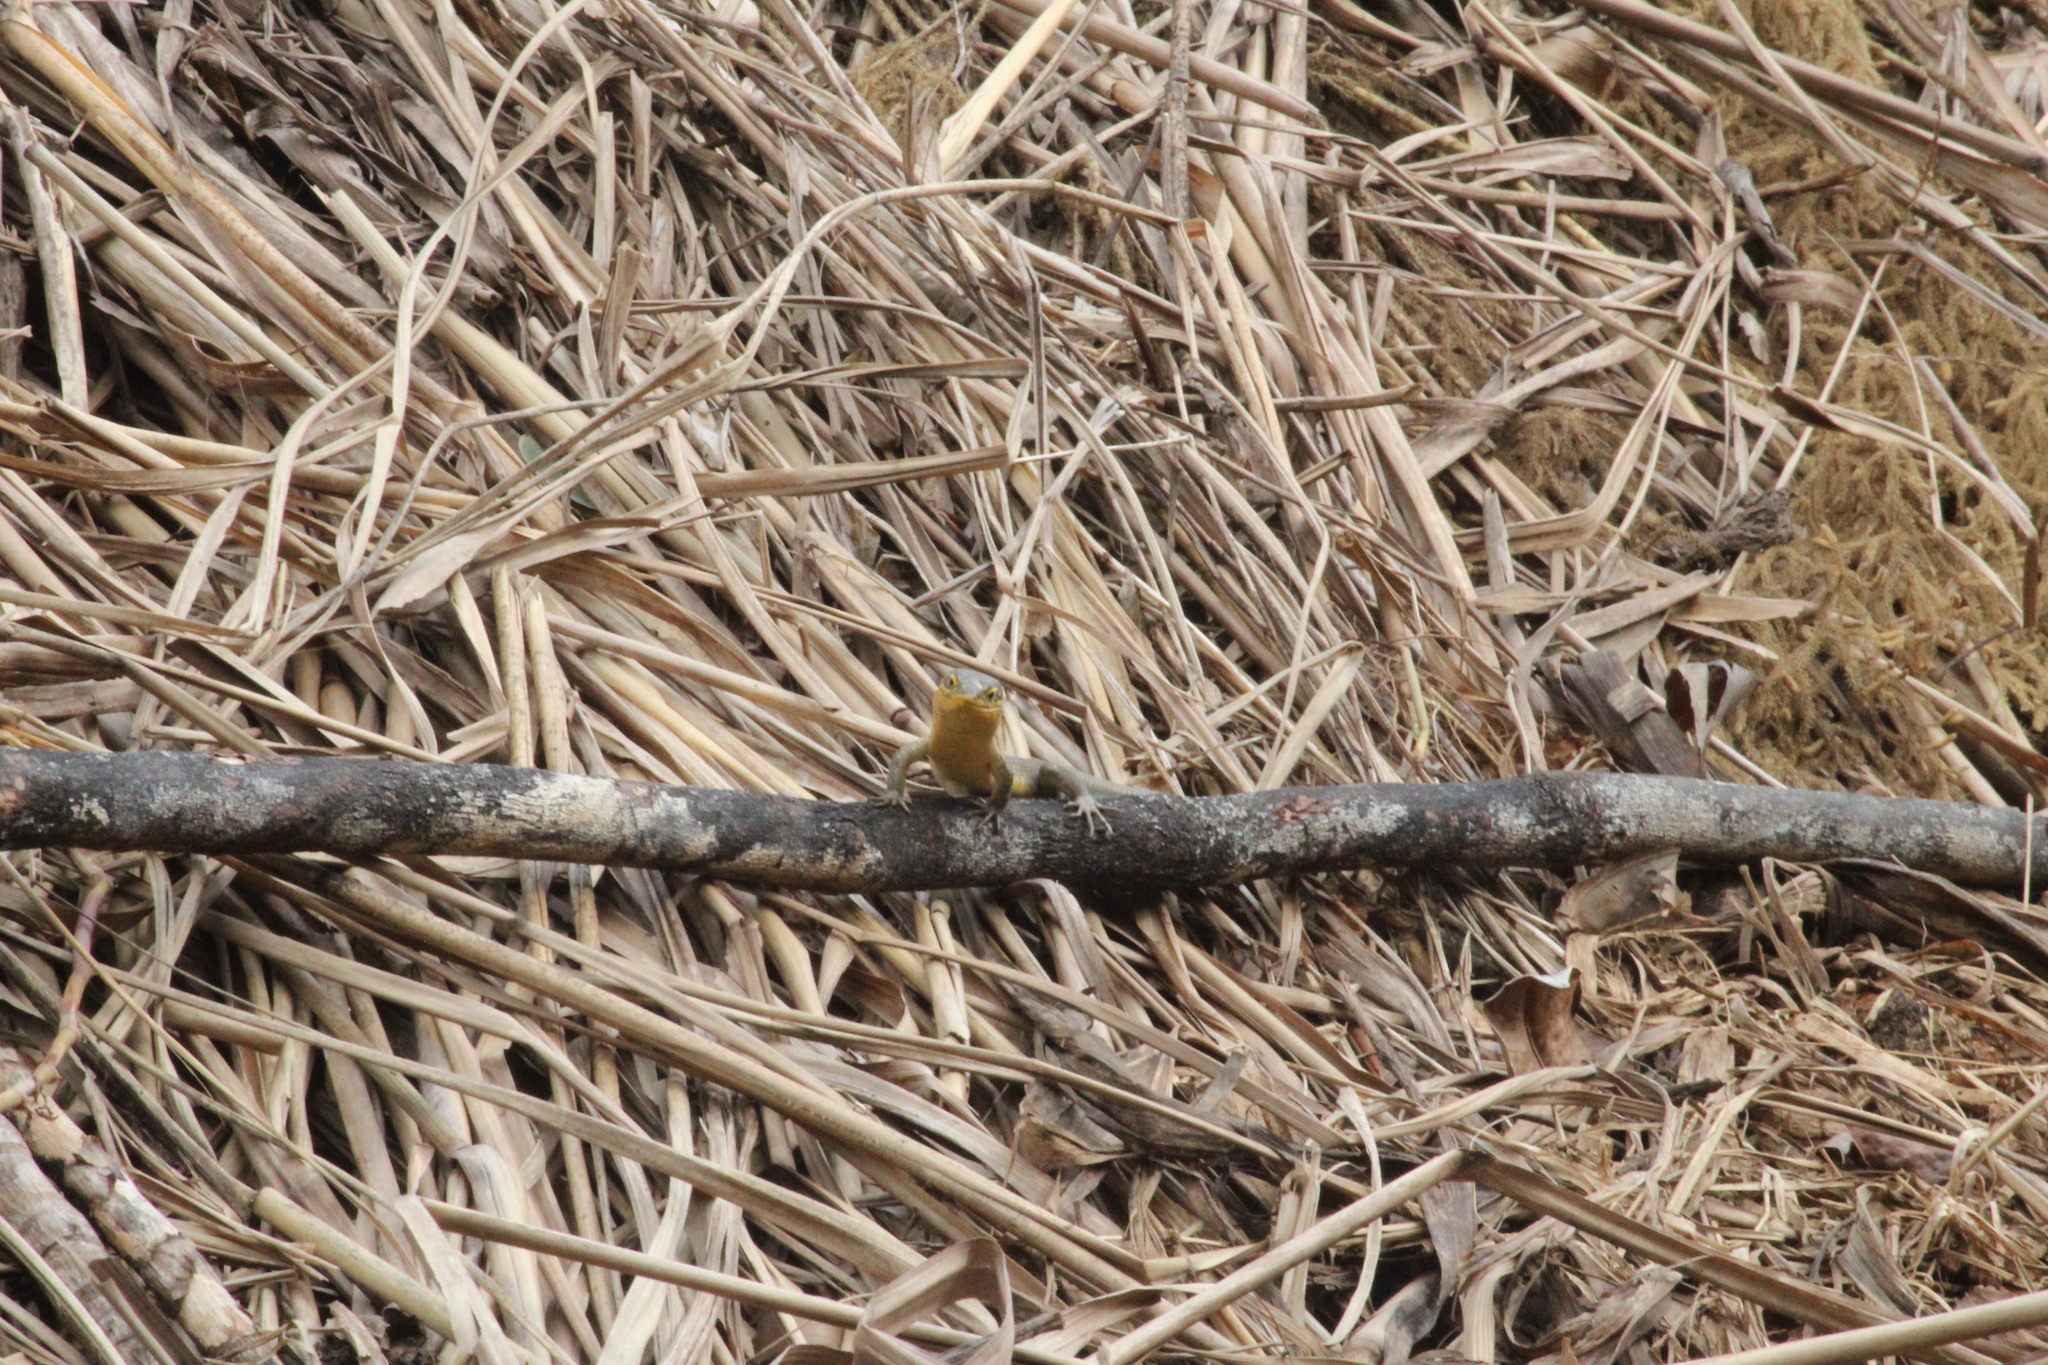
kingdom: Animalia
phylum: Chordata
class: Squamata
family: Scincidae
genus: Trachylepis
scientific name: Trachylepis maculilabris
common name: Speckle-lipped mabuya
